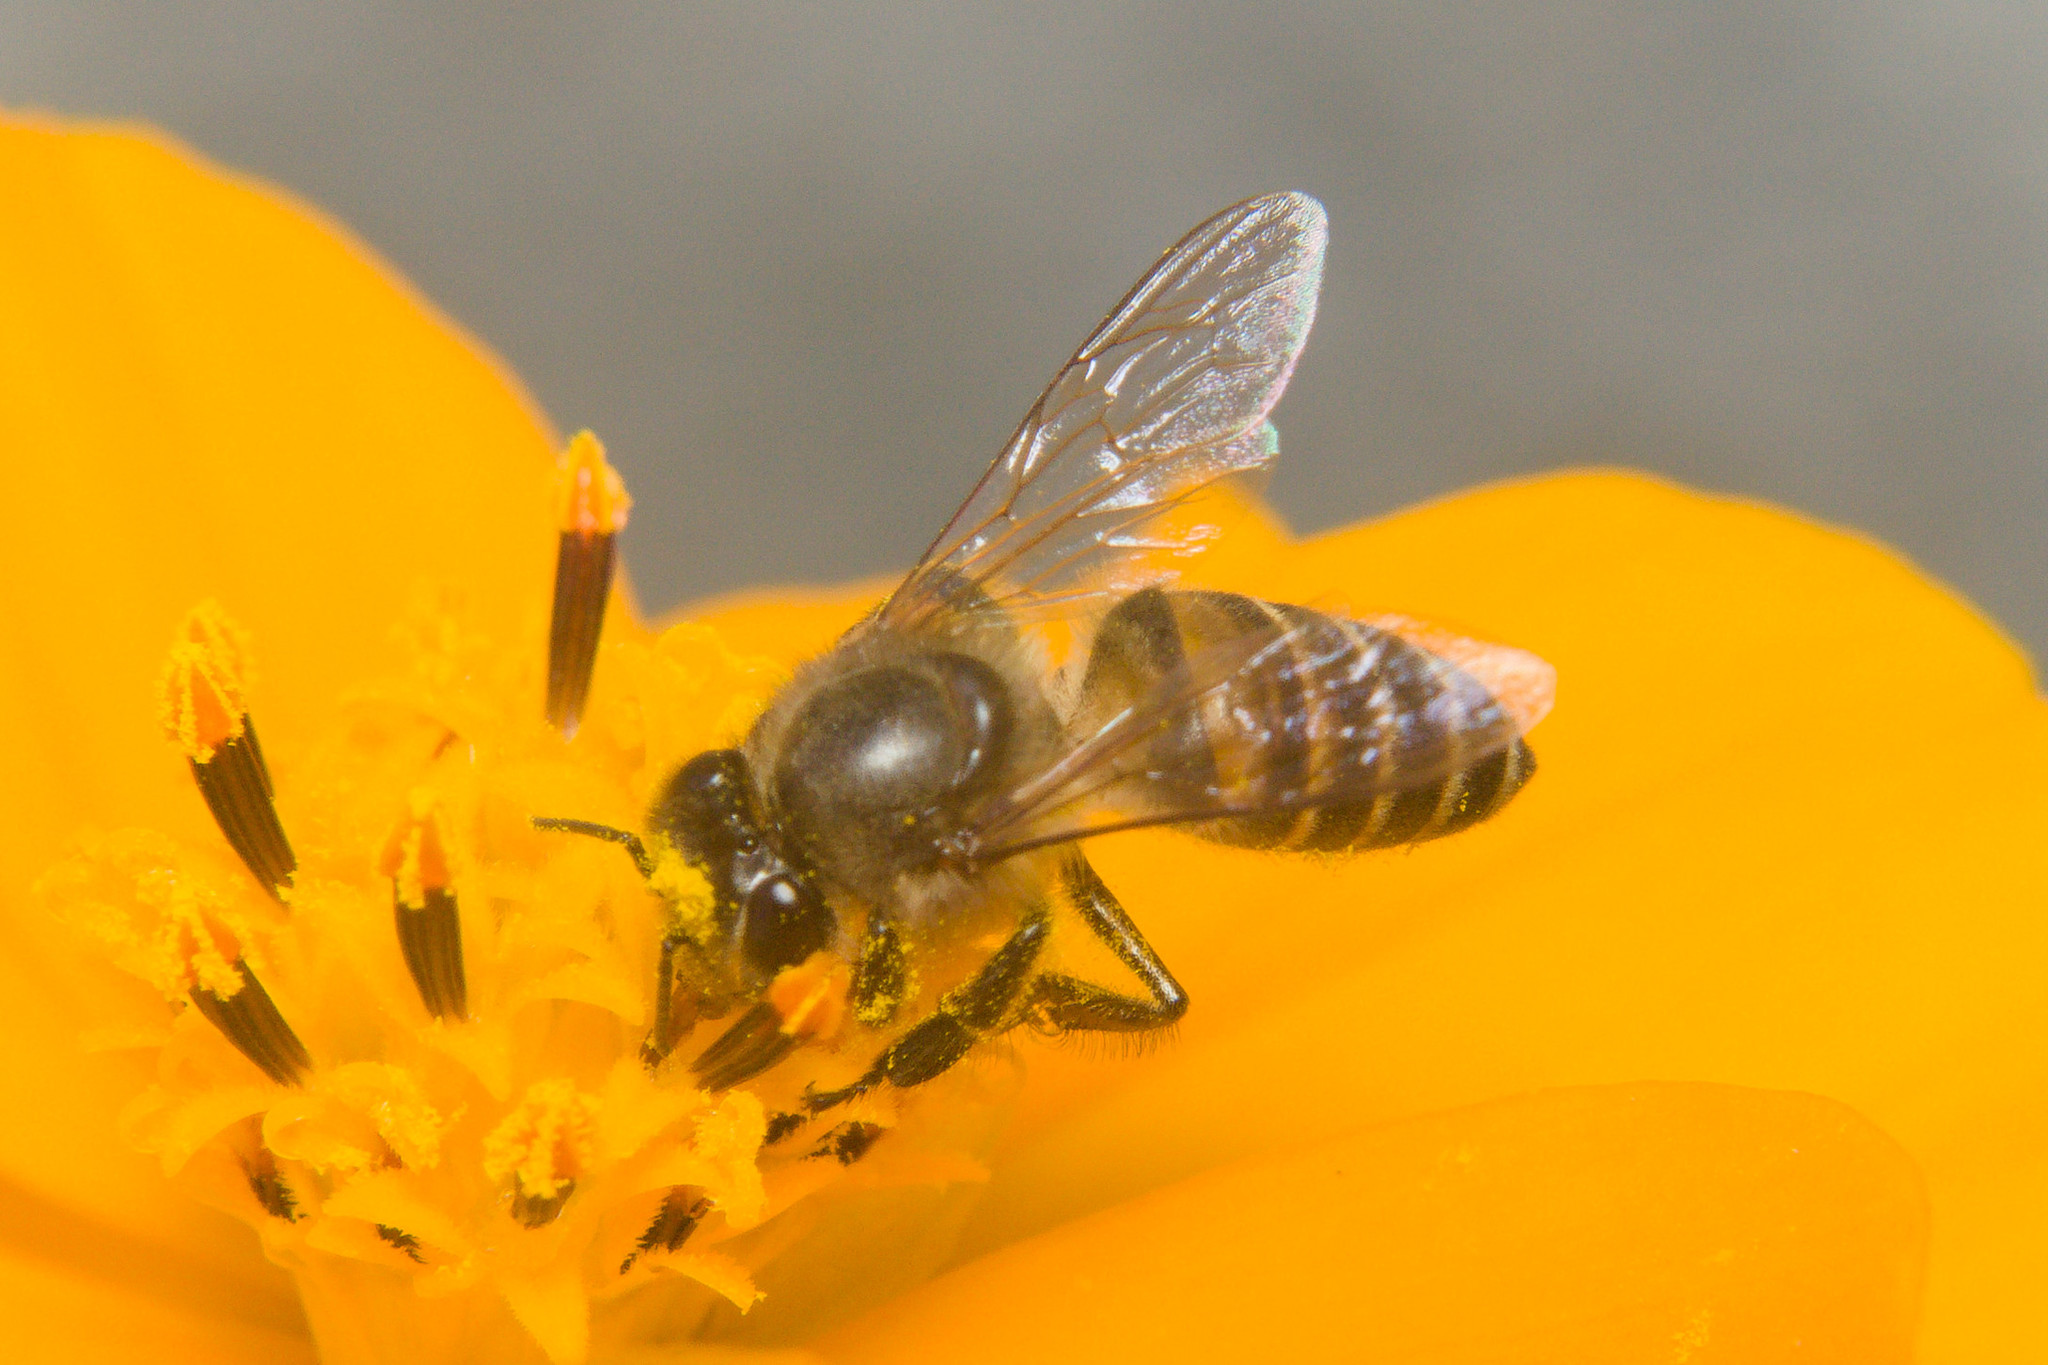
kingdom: Animalia
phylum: Arthropoda
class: Insecta
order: Hymenoptera
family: Apidae
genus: Apis
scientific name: Apis cerana
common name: Honey bee
